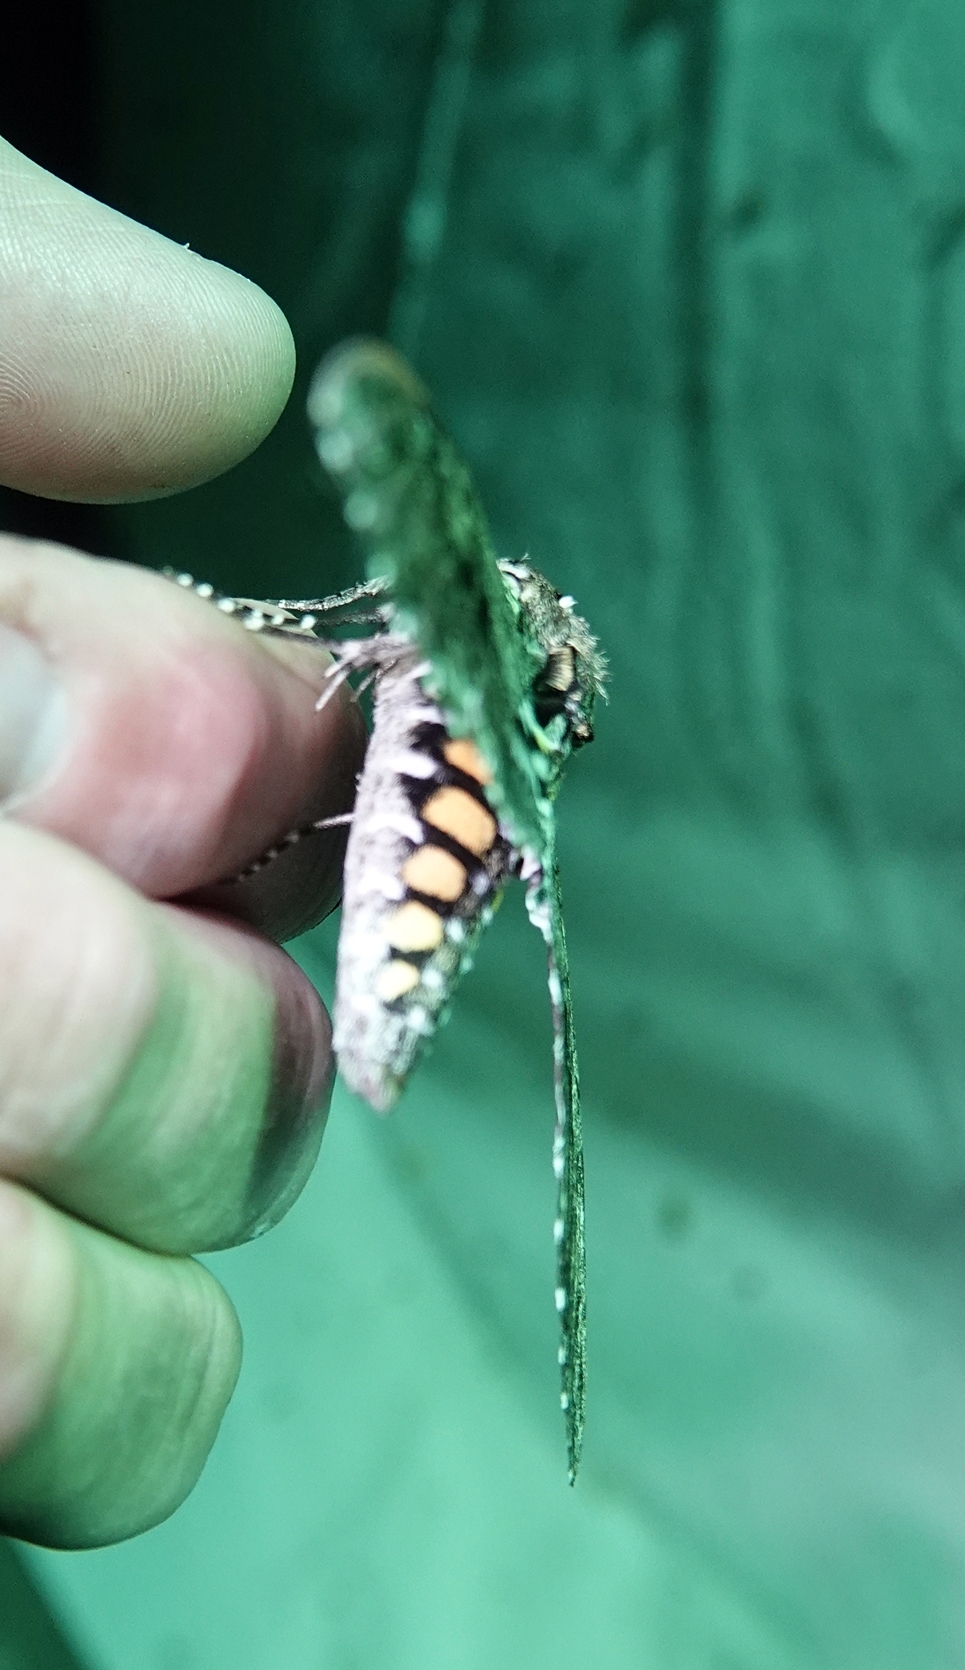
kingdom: Animalia
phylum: Arthropoda
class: Insecta
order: Lepidoptera
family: Sphingidae
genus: Manduca
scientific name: Manduca sexta
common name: Carolina sphinx
